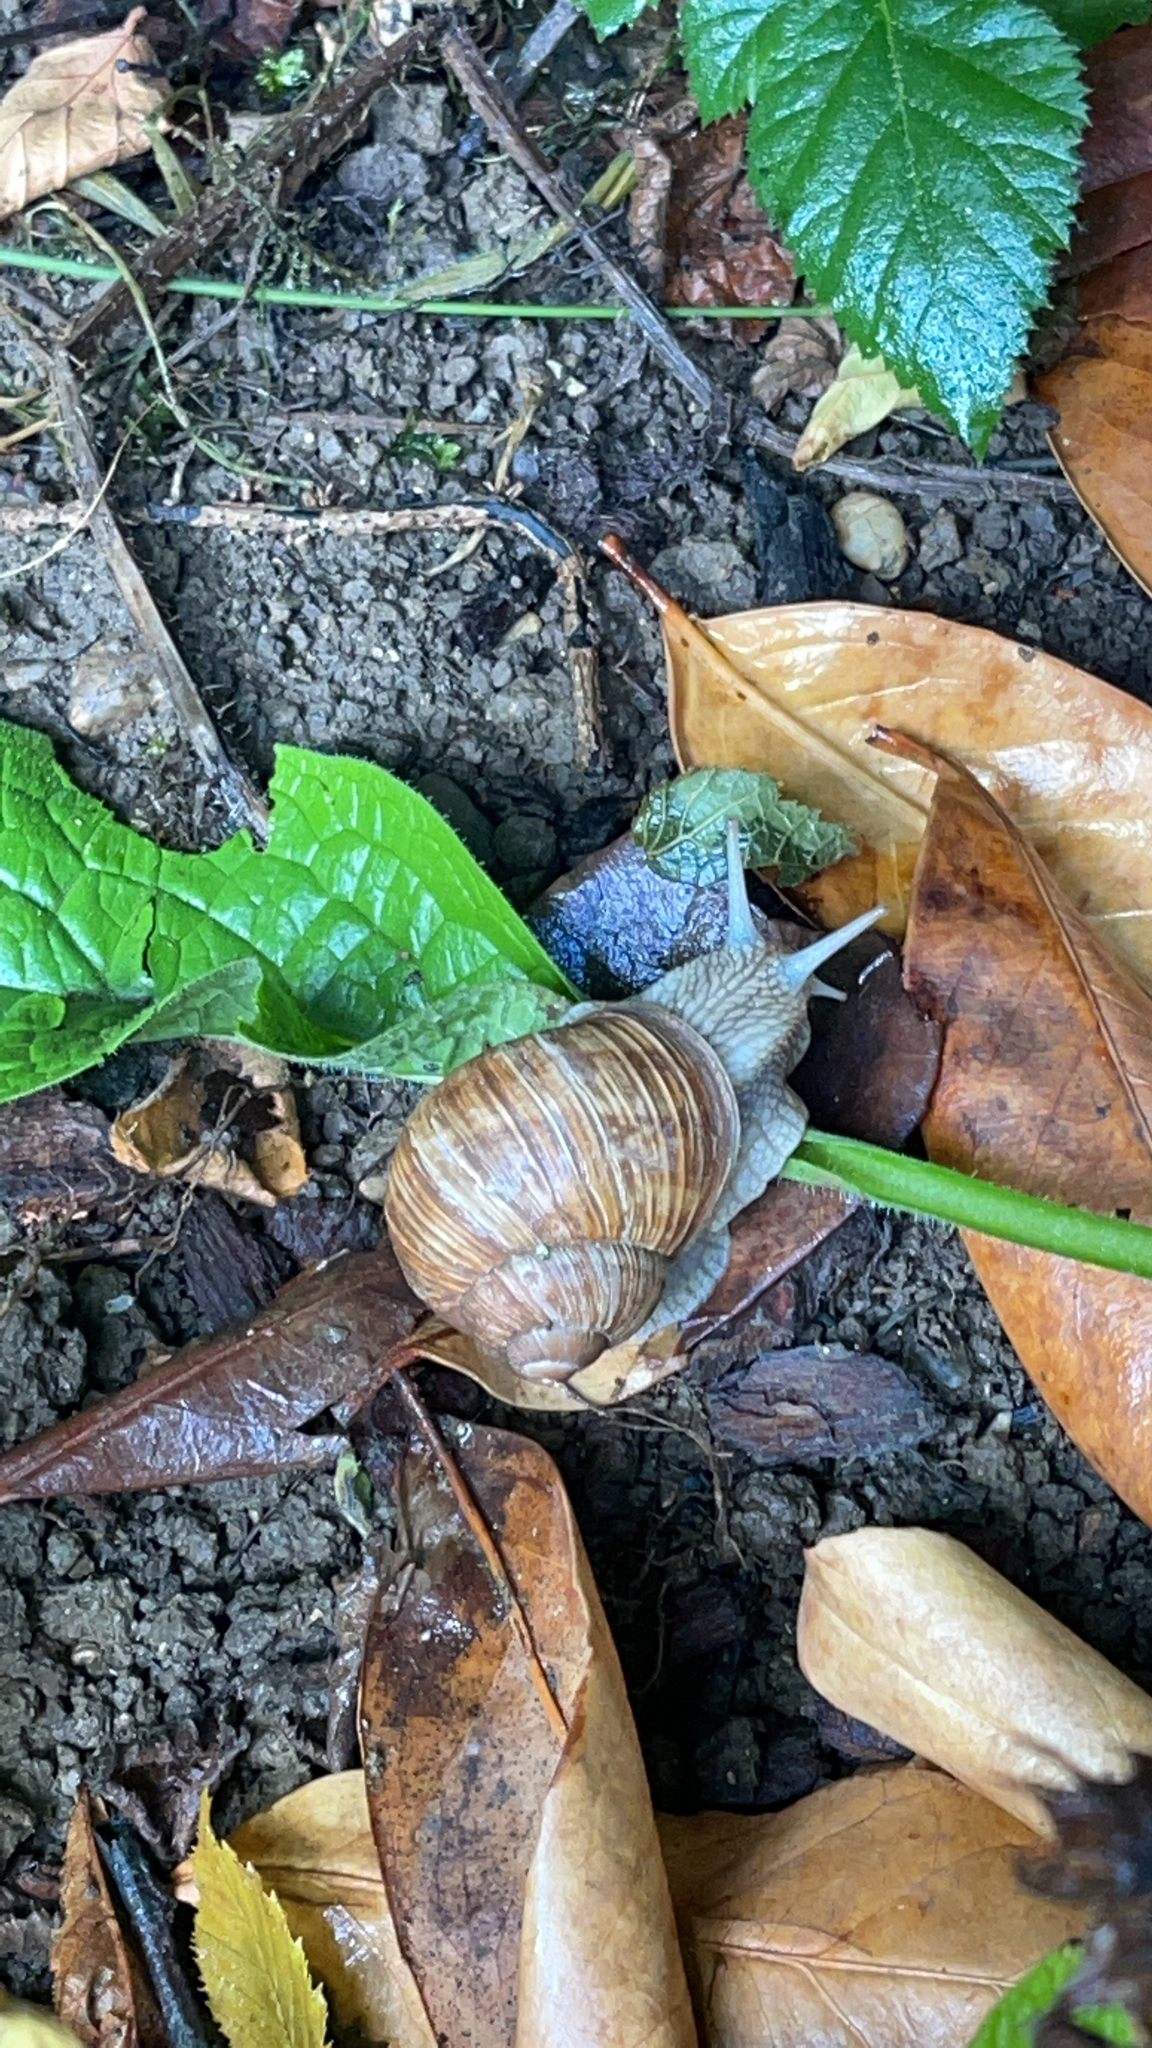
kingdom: Animalia
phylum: Mollusca
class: Gastropoda
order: Stylommatophora
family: Helicidae
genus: Helix
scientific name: Helix pomatia
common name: Roman snail
